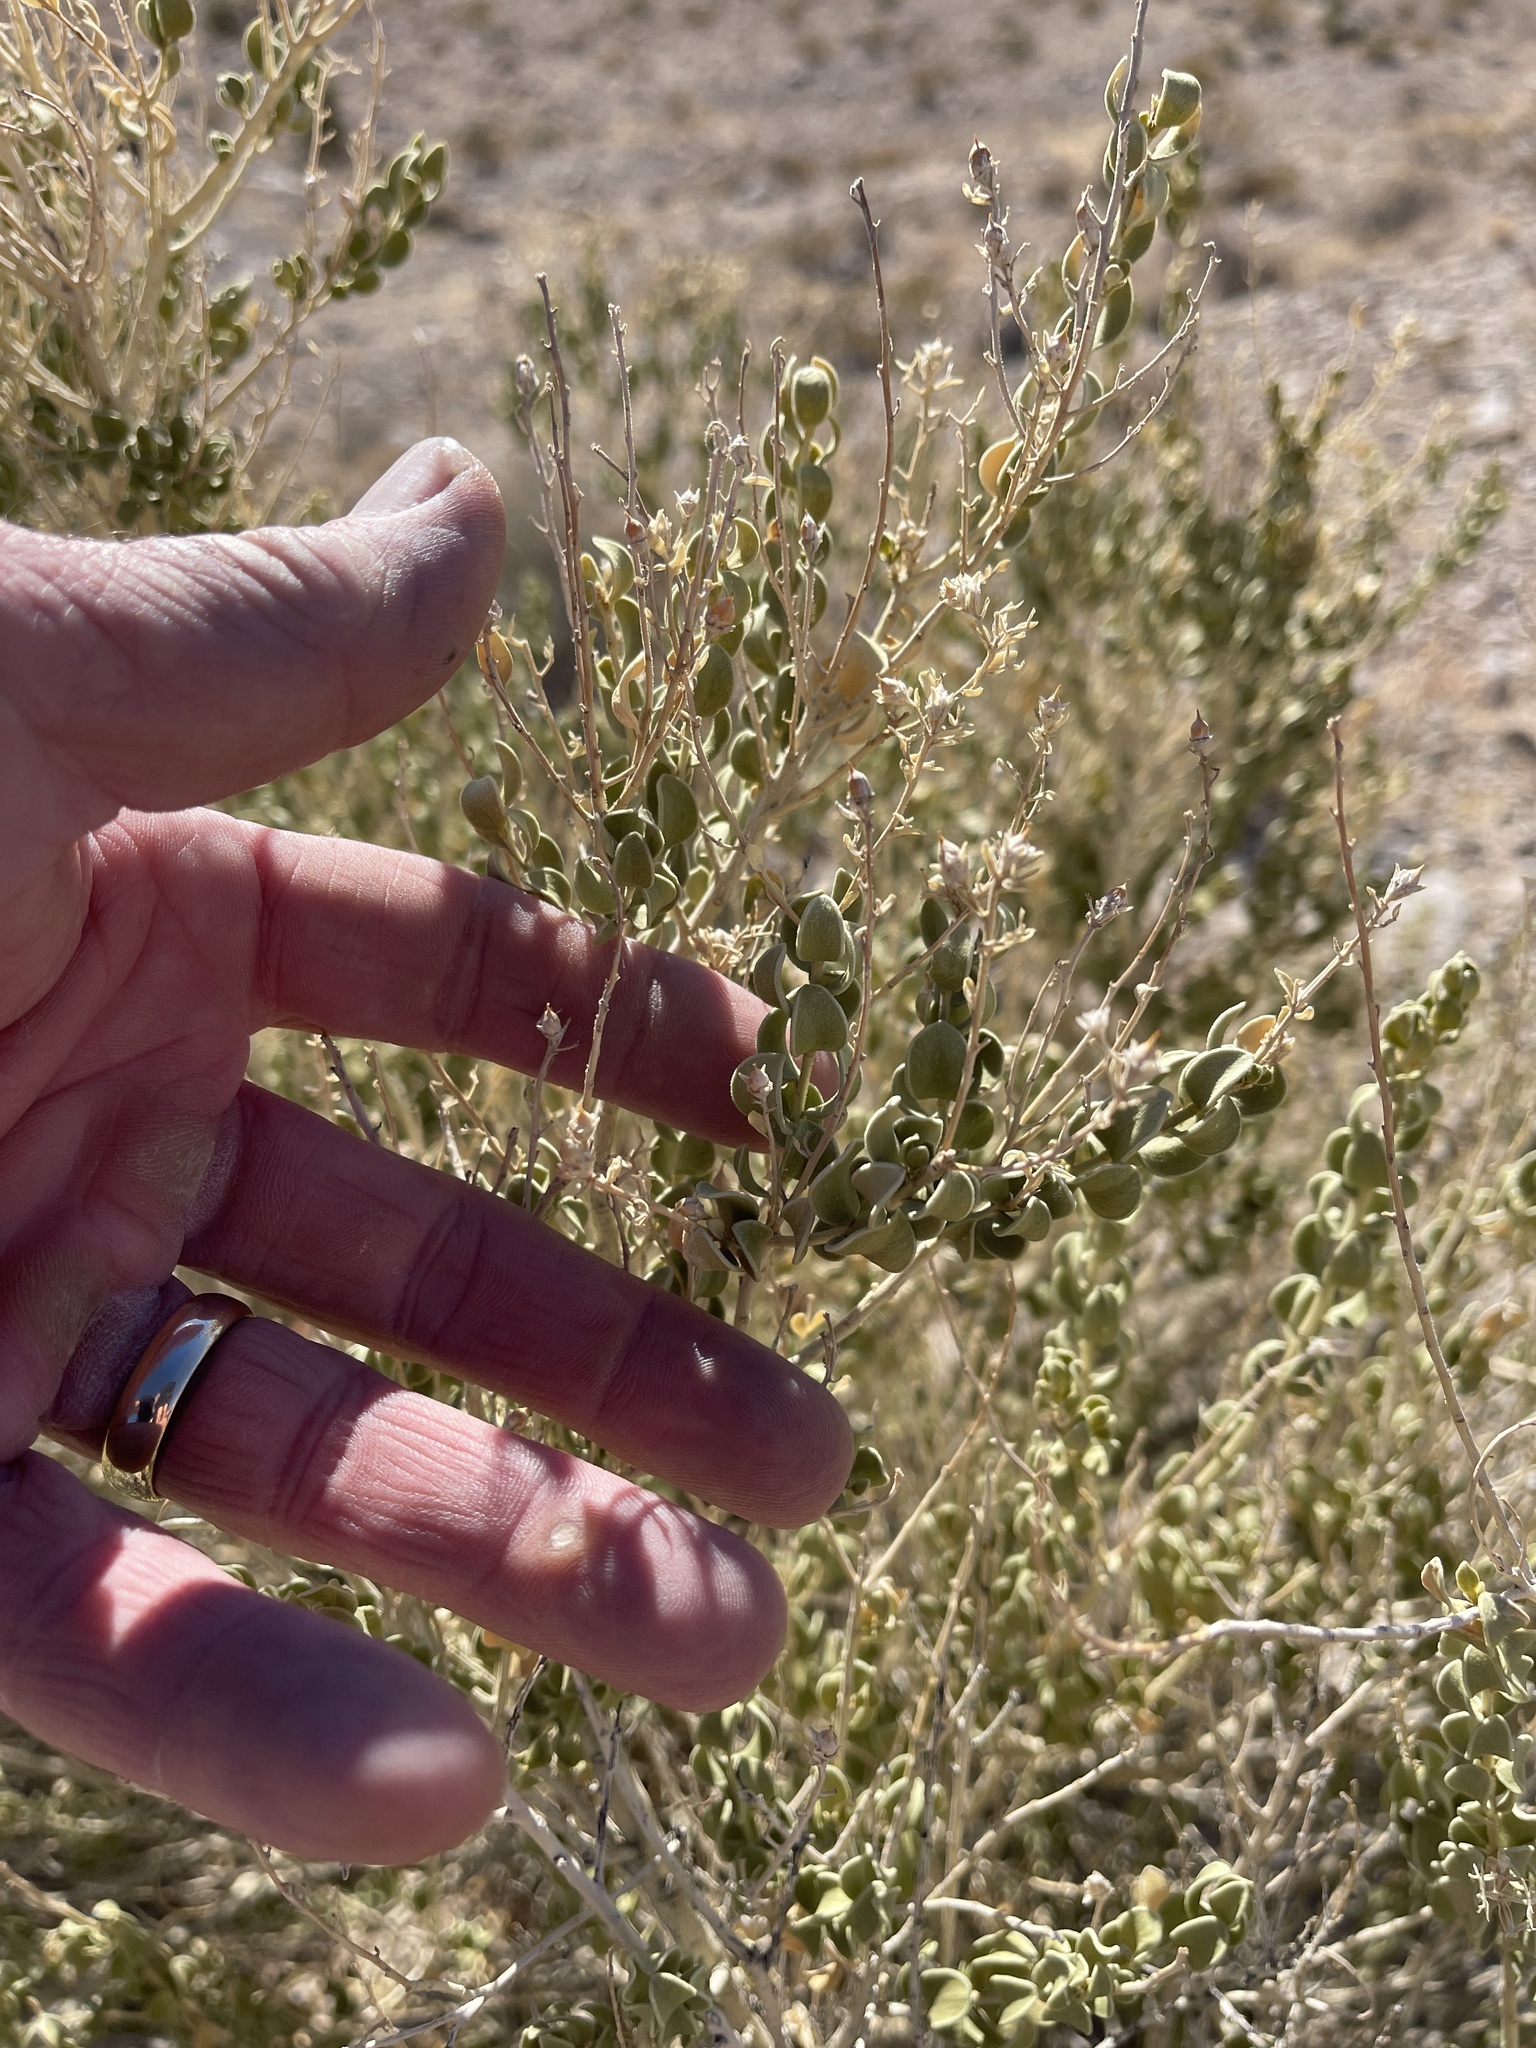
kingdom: Plantae
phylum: Tracheophyta
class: Magnoliopsida
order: Caryophyllales
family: Amaranthaceae
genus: Atriplex
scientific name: Atriplex confertifolia
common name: Shadscale
